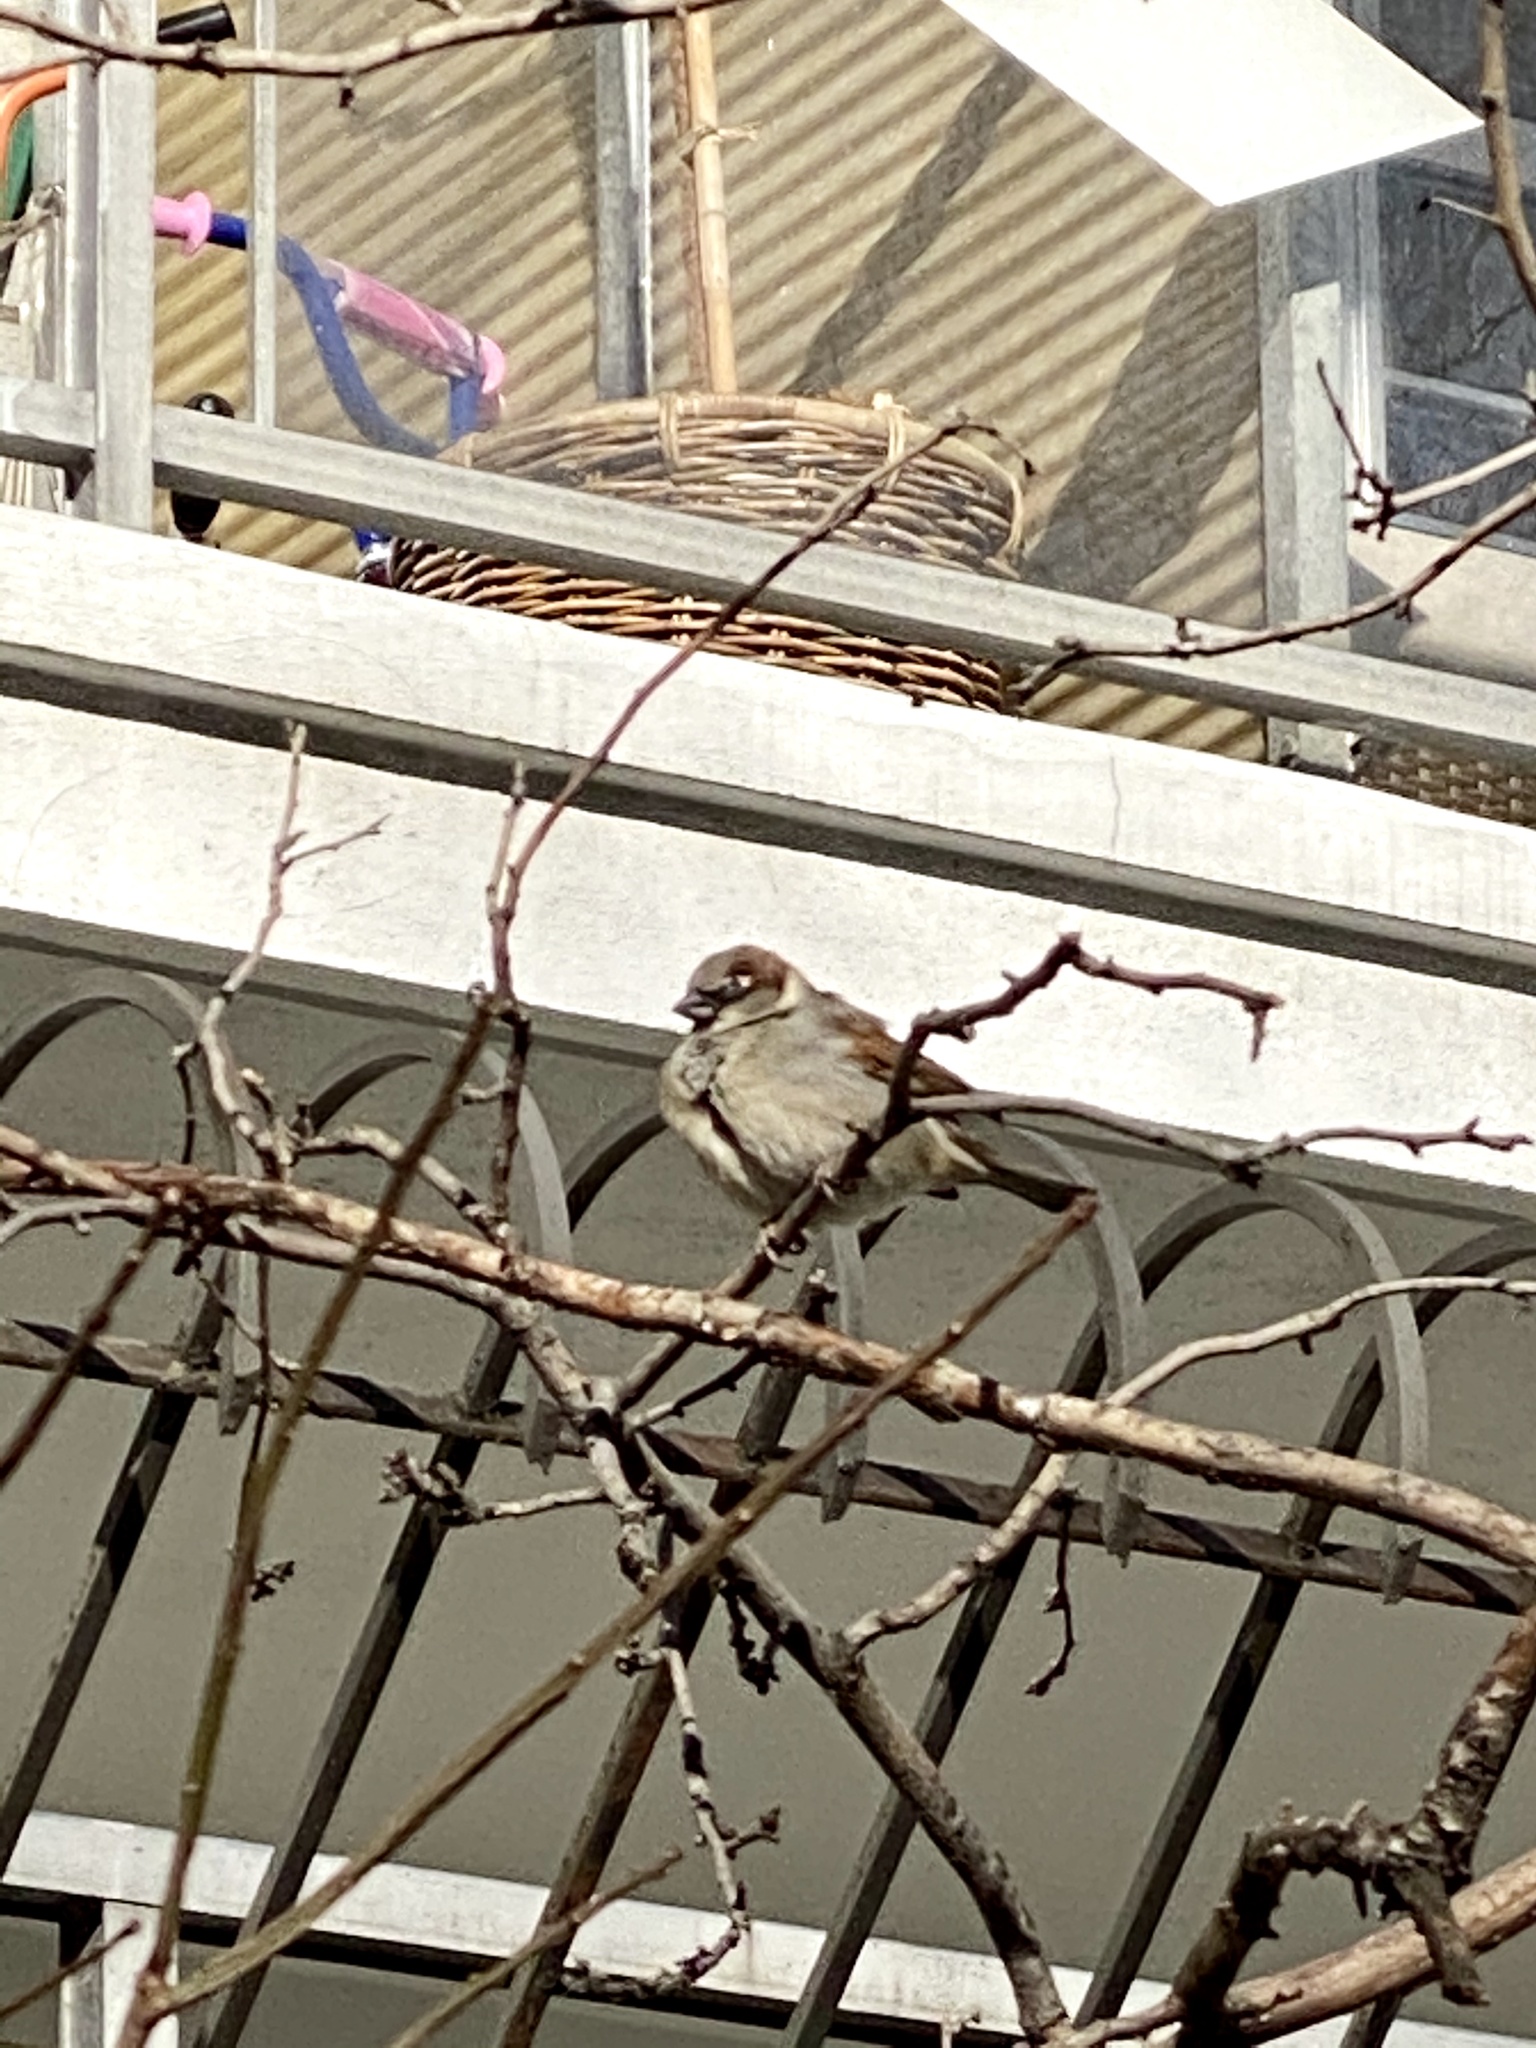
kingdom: Animalia
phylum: Chordata
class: Aves
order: Passeriformes
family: Passeridae
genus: Passer
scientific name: Passer domesticus
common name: House sparrow
